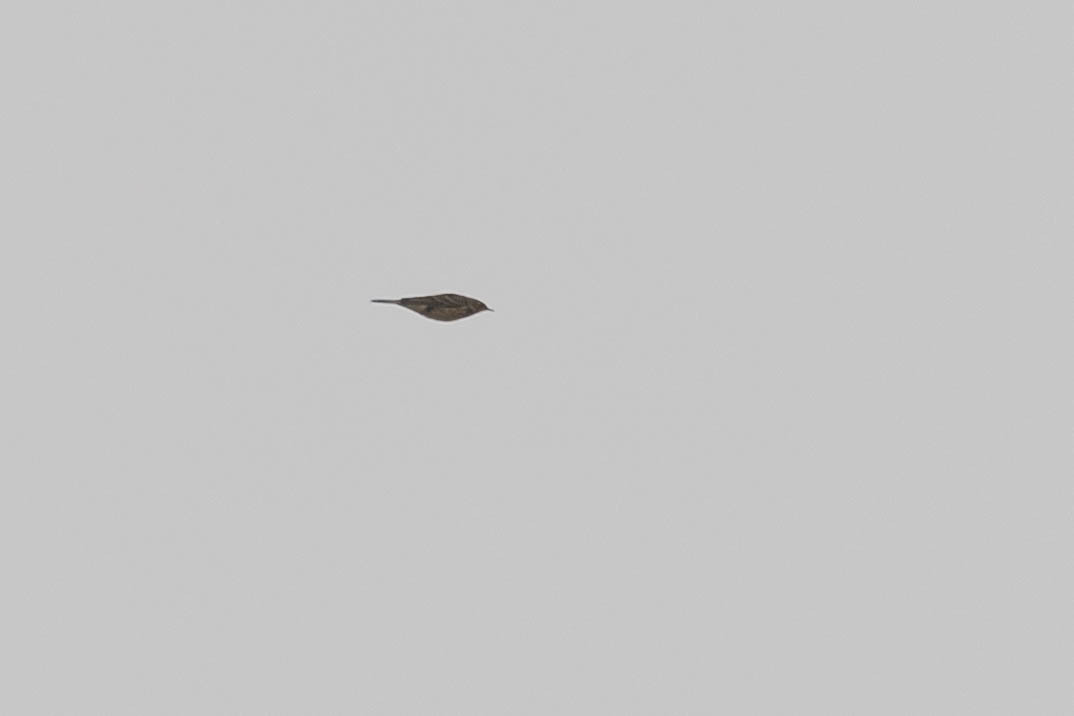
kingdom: Animalia
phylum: Chordata
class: Aves
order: Passeriformes
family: Motacillidae
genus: Anthus
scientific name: Anthus rubescens
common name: Buff-bellied pipit
